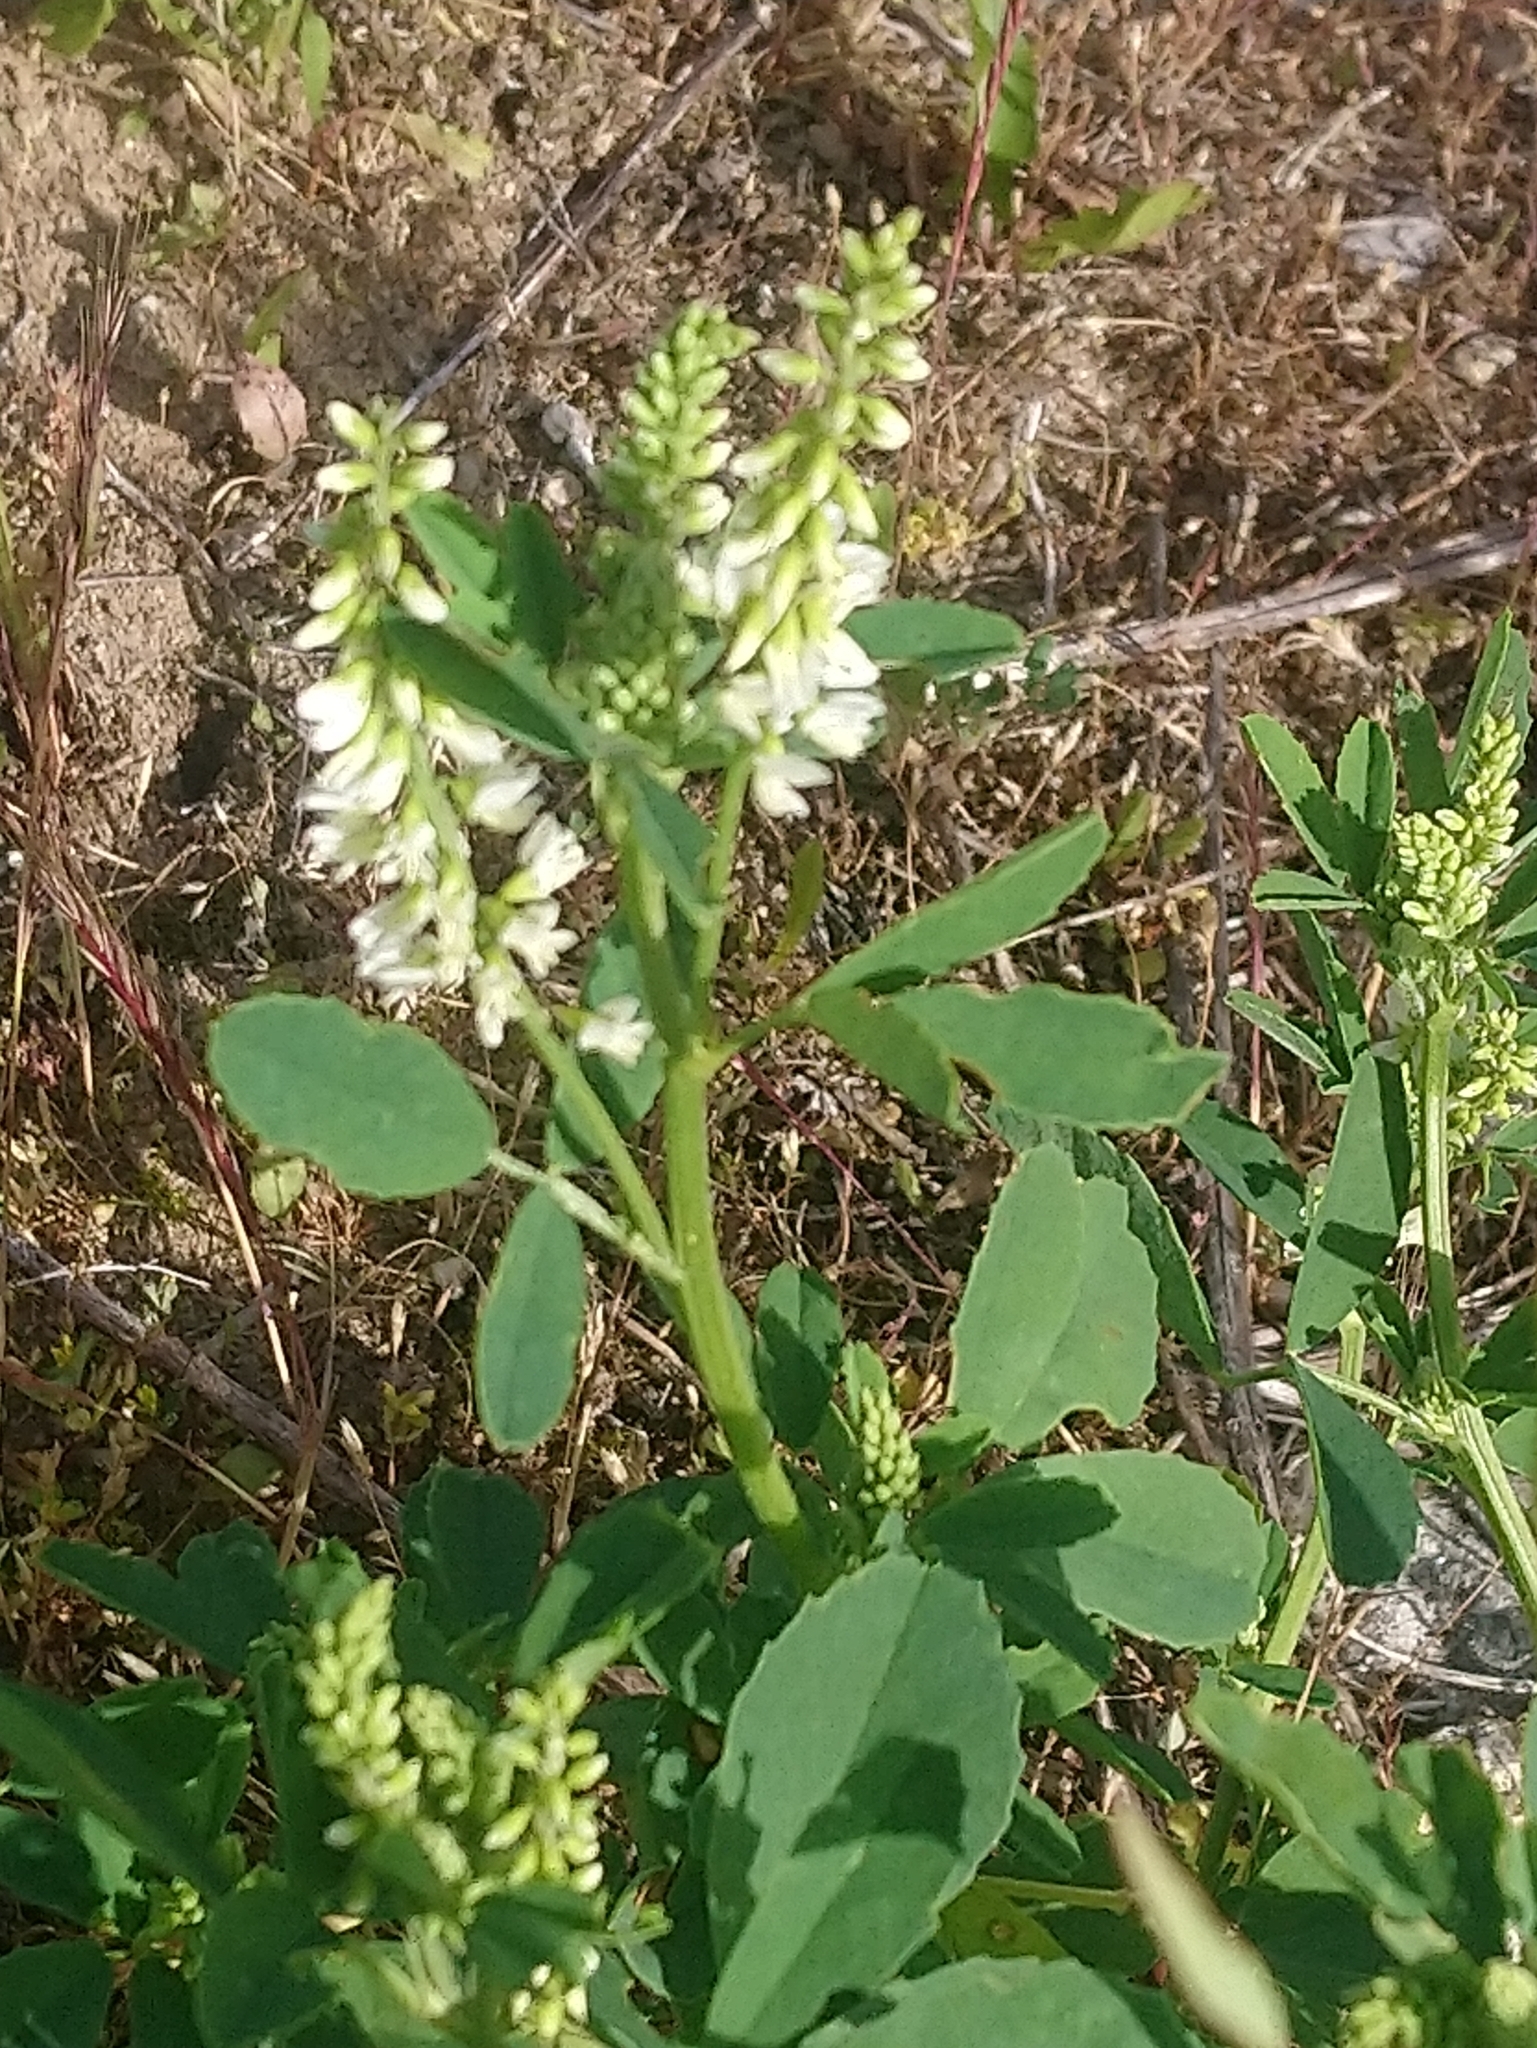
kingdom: Plantae
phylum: Tracheophyta
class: Magnoliopsida
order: Fabales
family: Fabaceae
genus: Melilotus
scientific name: Melilotus albus
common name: White melilot
